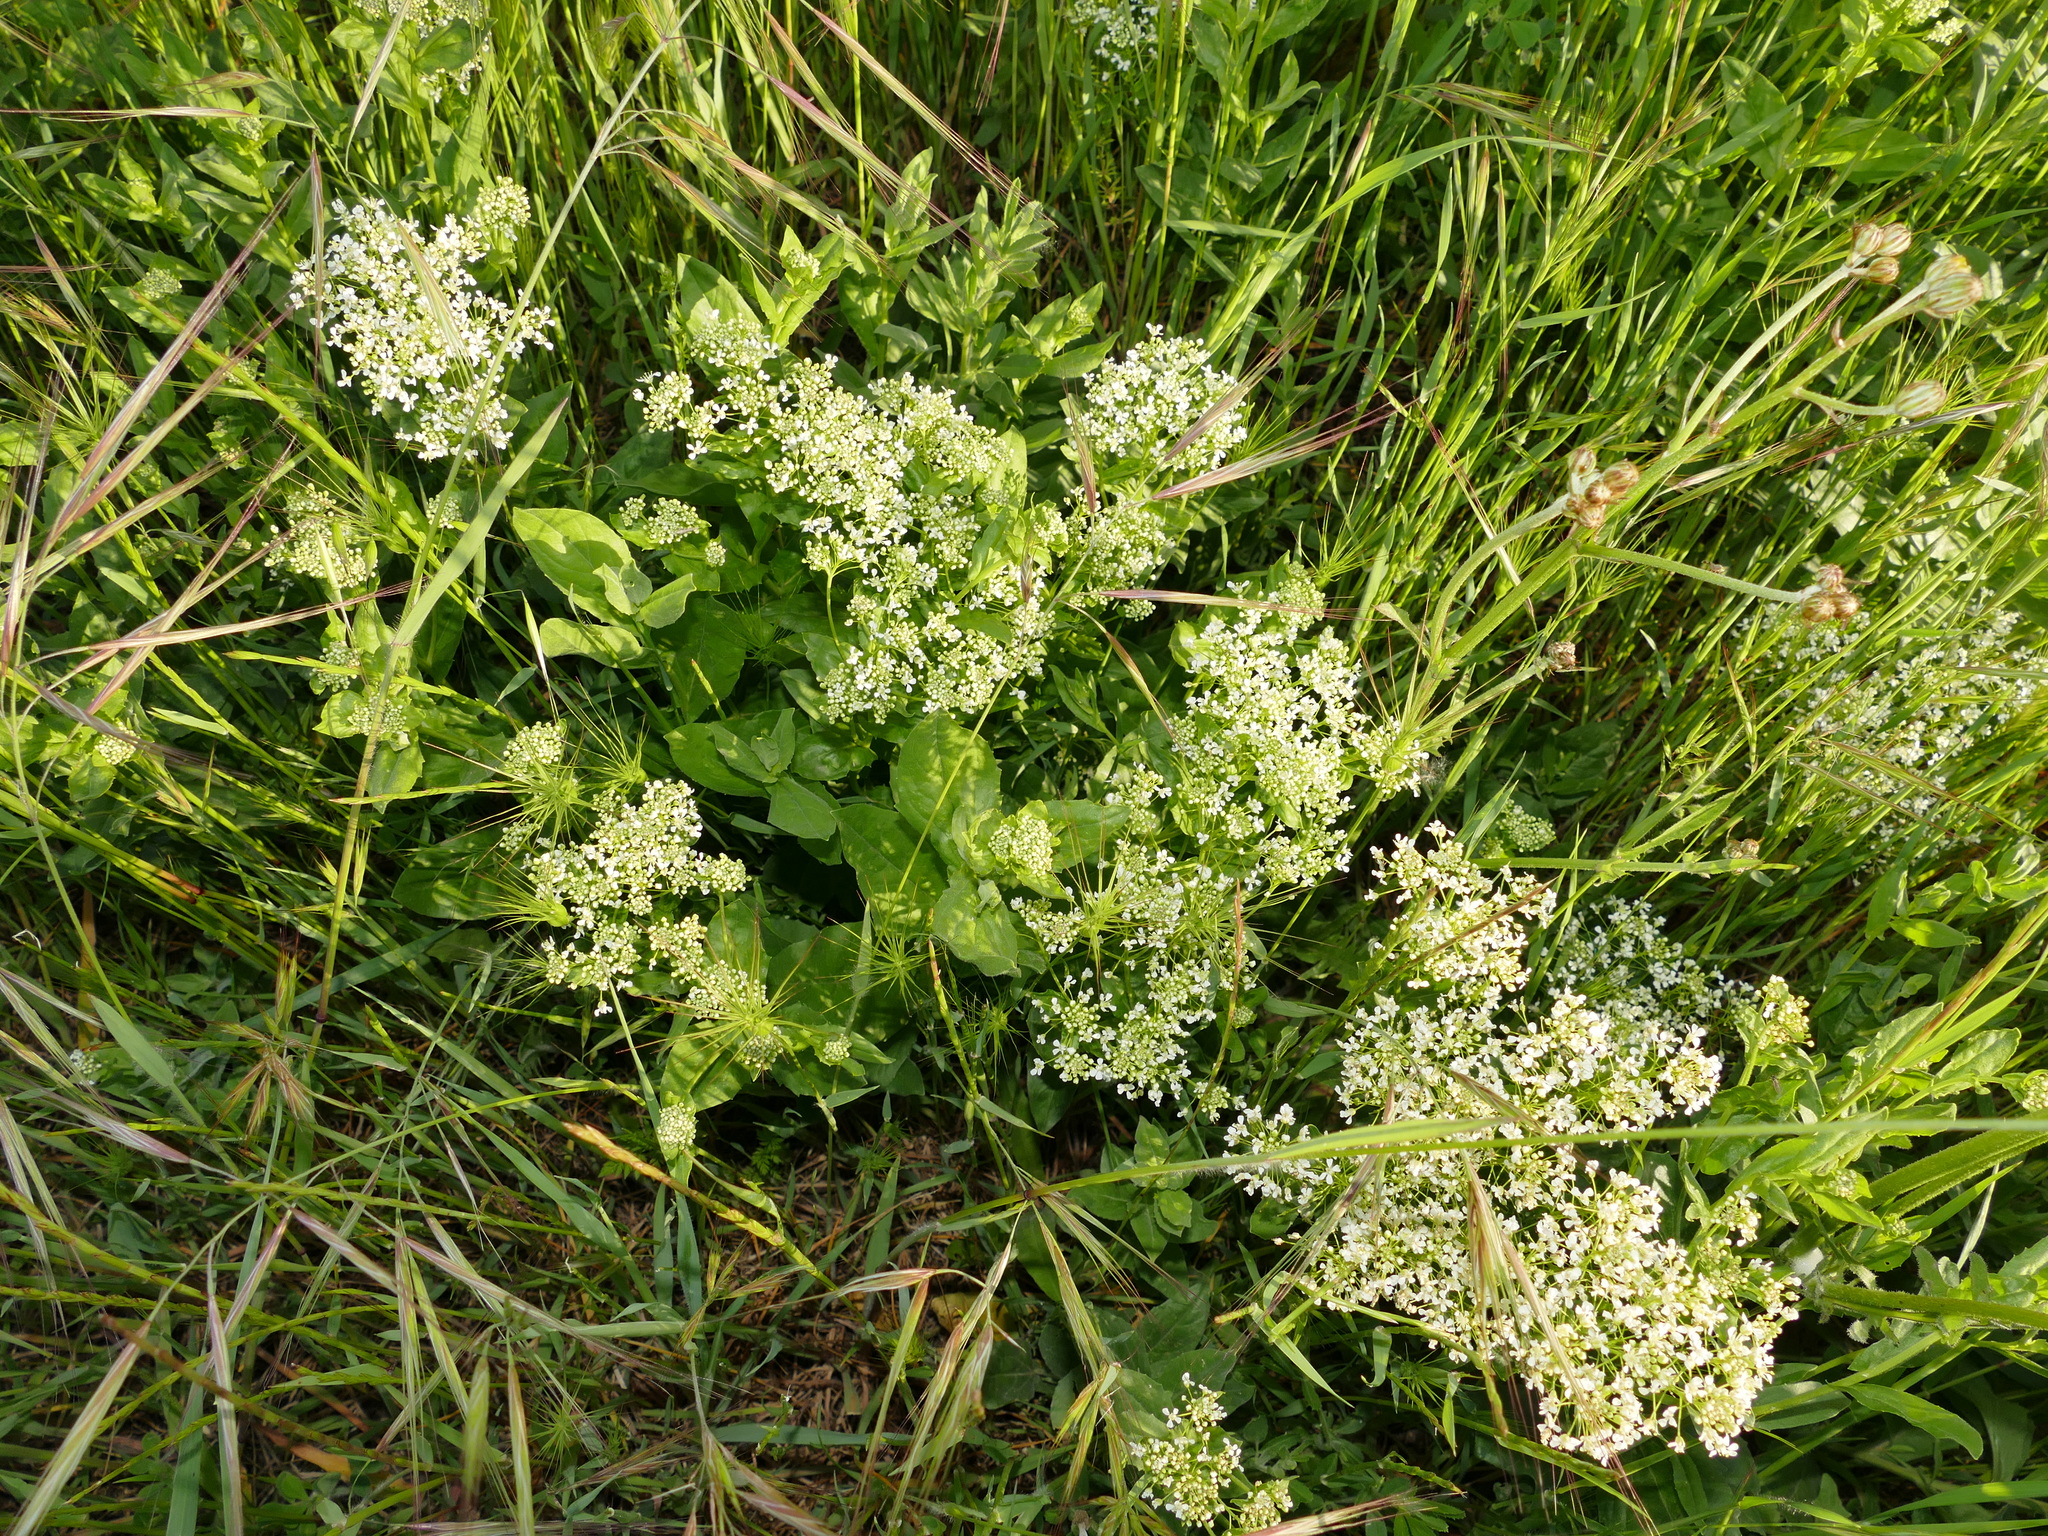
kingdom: Plantae
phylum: Tracheophyta
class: Magnoliopsida
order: Brassicales
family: Brassicaceae
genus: Lepidium
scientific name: Lepidium draba
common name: Hoary cress
